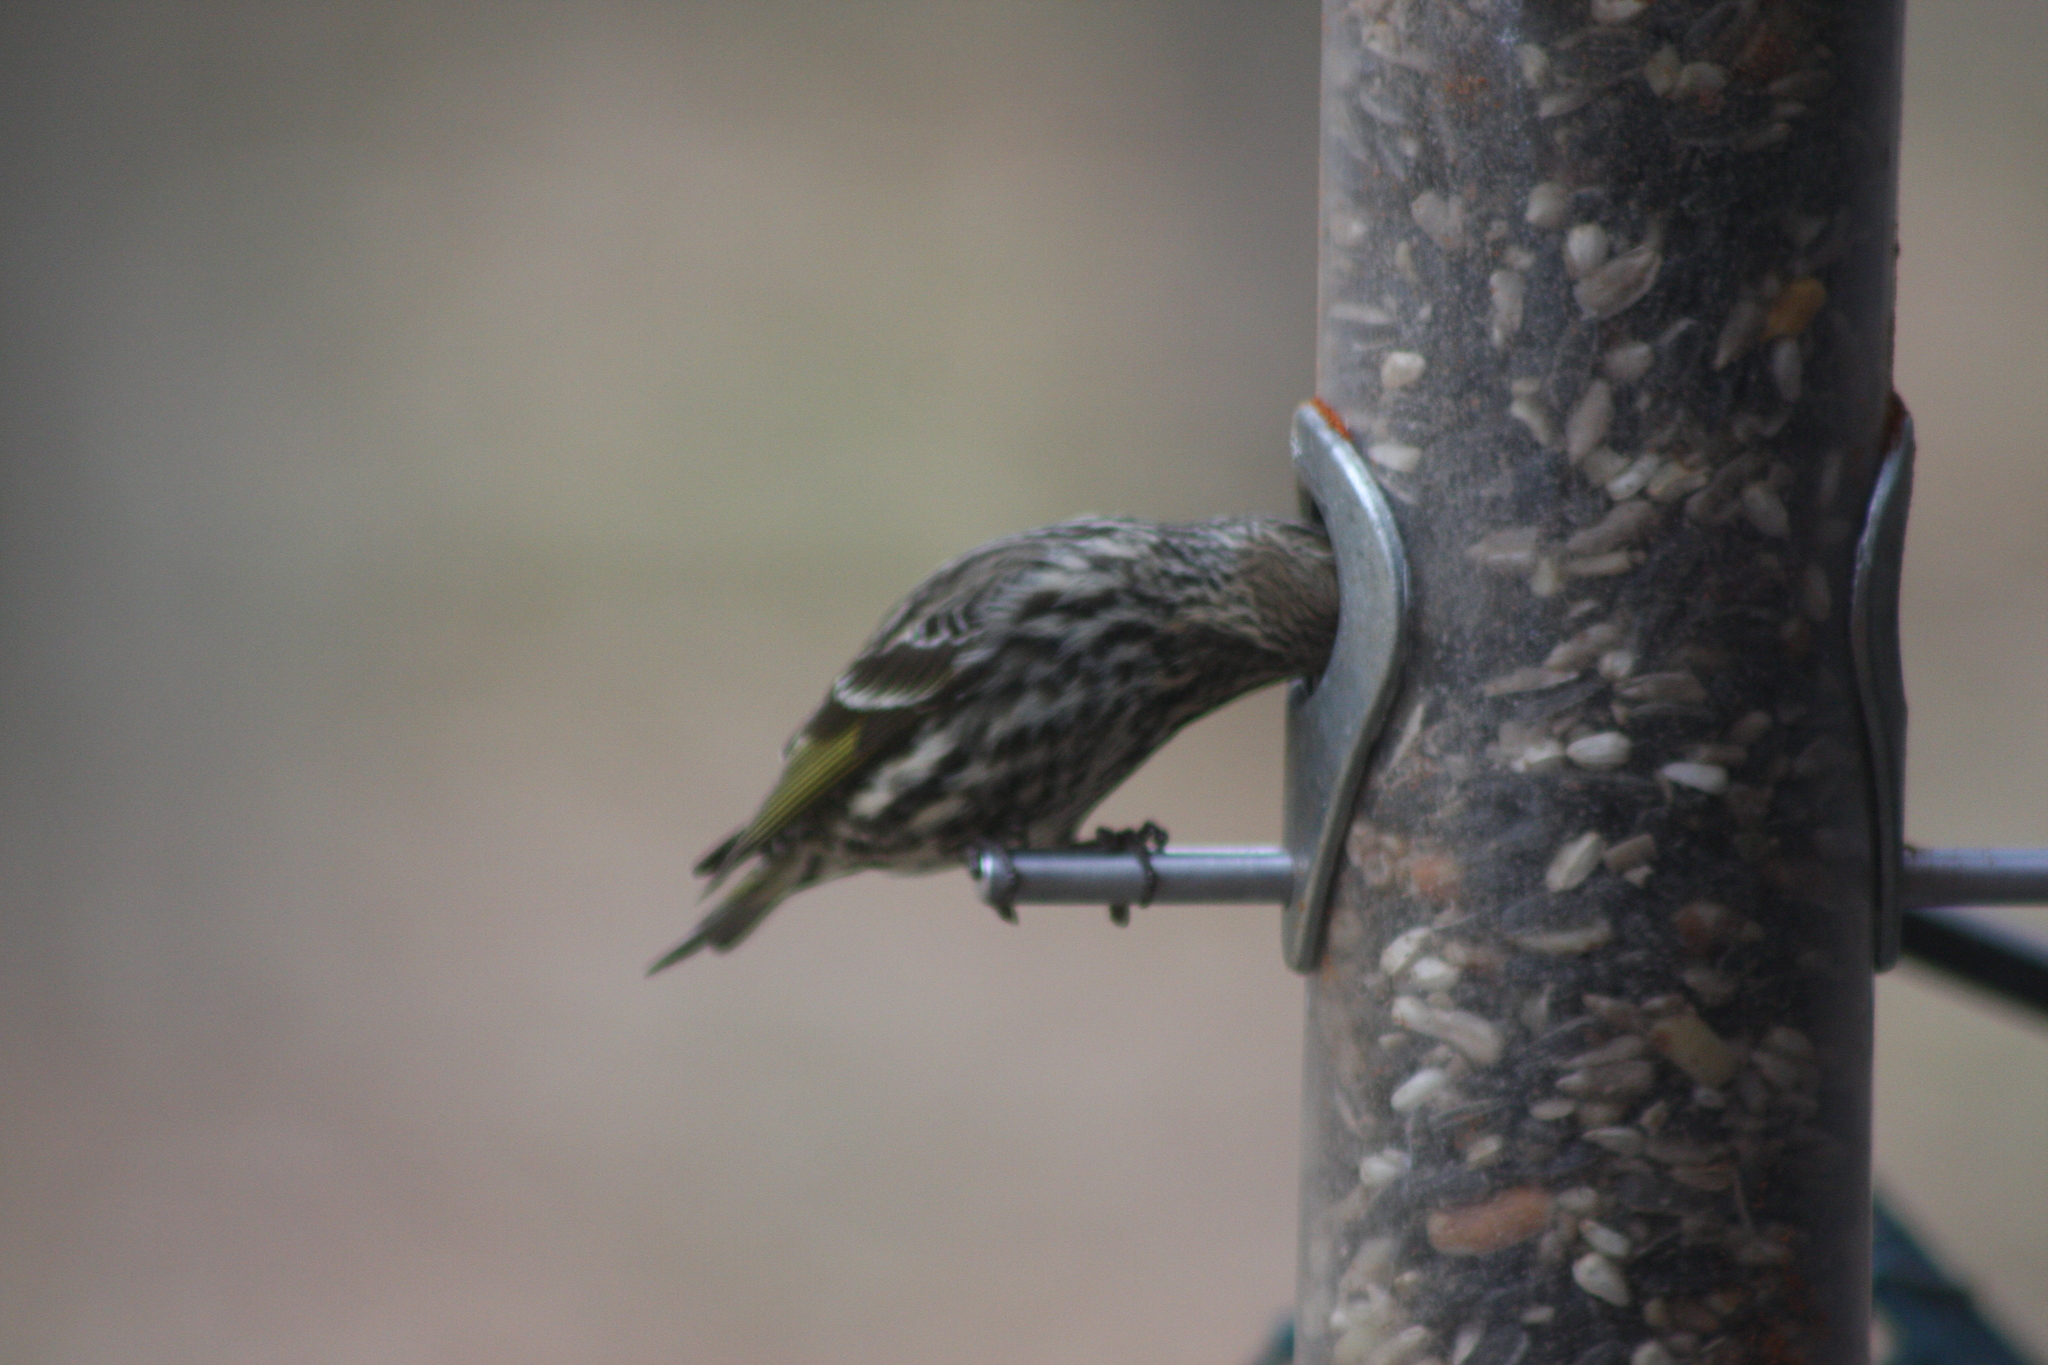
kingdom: Animalia
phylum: Chordata
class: Aves
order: Passeriformes
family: Fringillidae
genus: Spinus
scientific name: Spinus pinus
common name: Pine siskin
